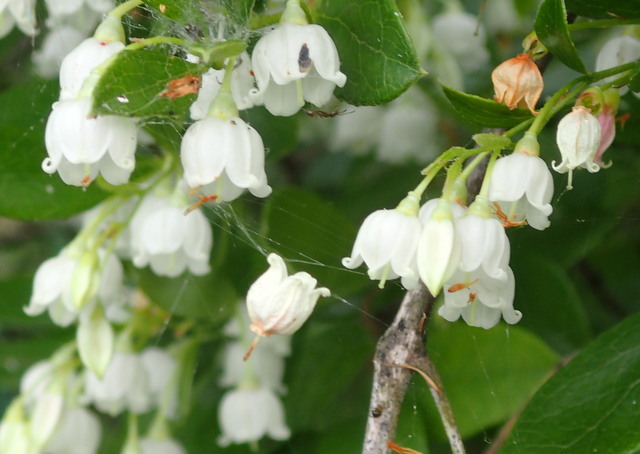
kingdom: Plantae
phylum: Tracheophyta
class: Magnoliopsida
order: Ericales
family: Ericaceae
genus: Vaccinium
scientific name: Vaccinium arboreum
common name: Farkleberry
